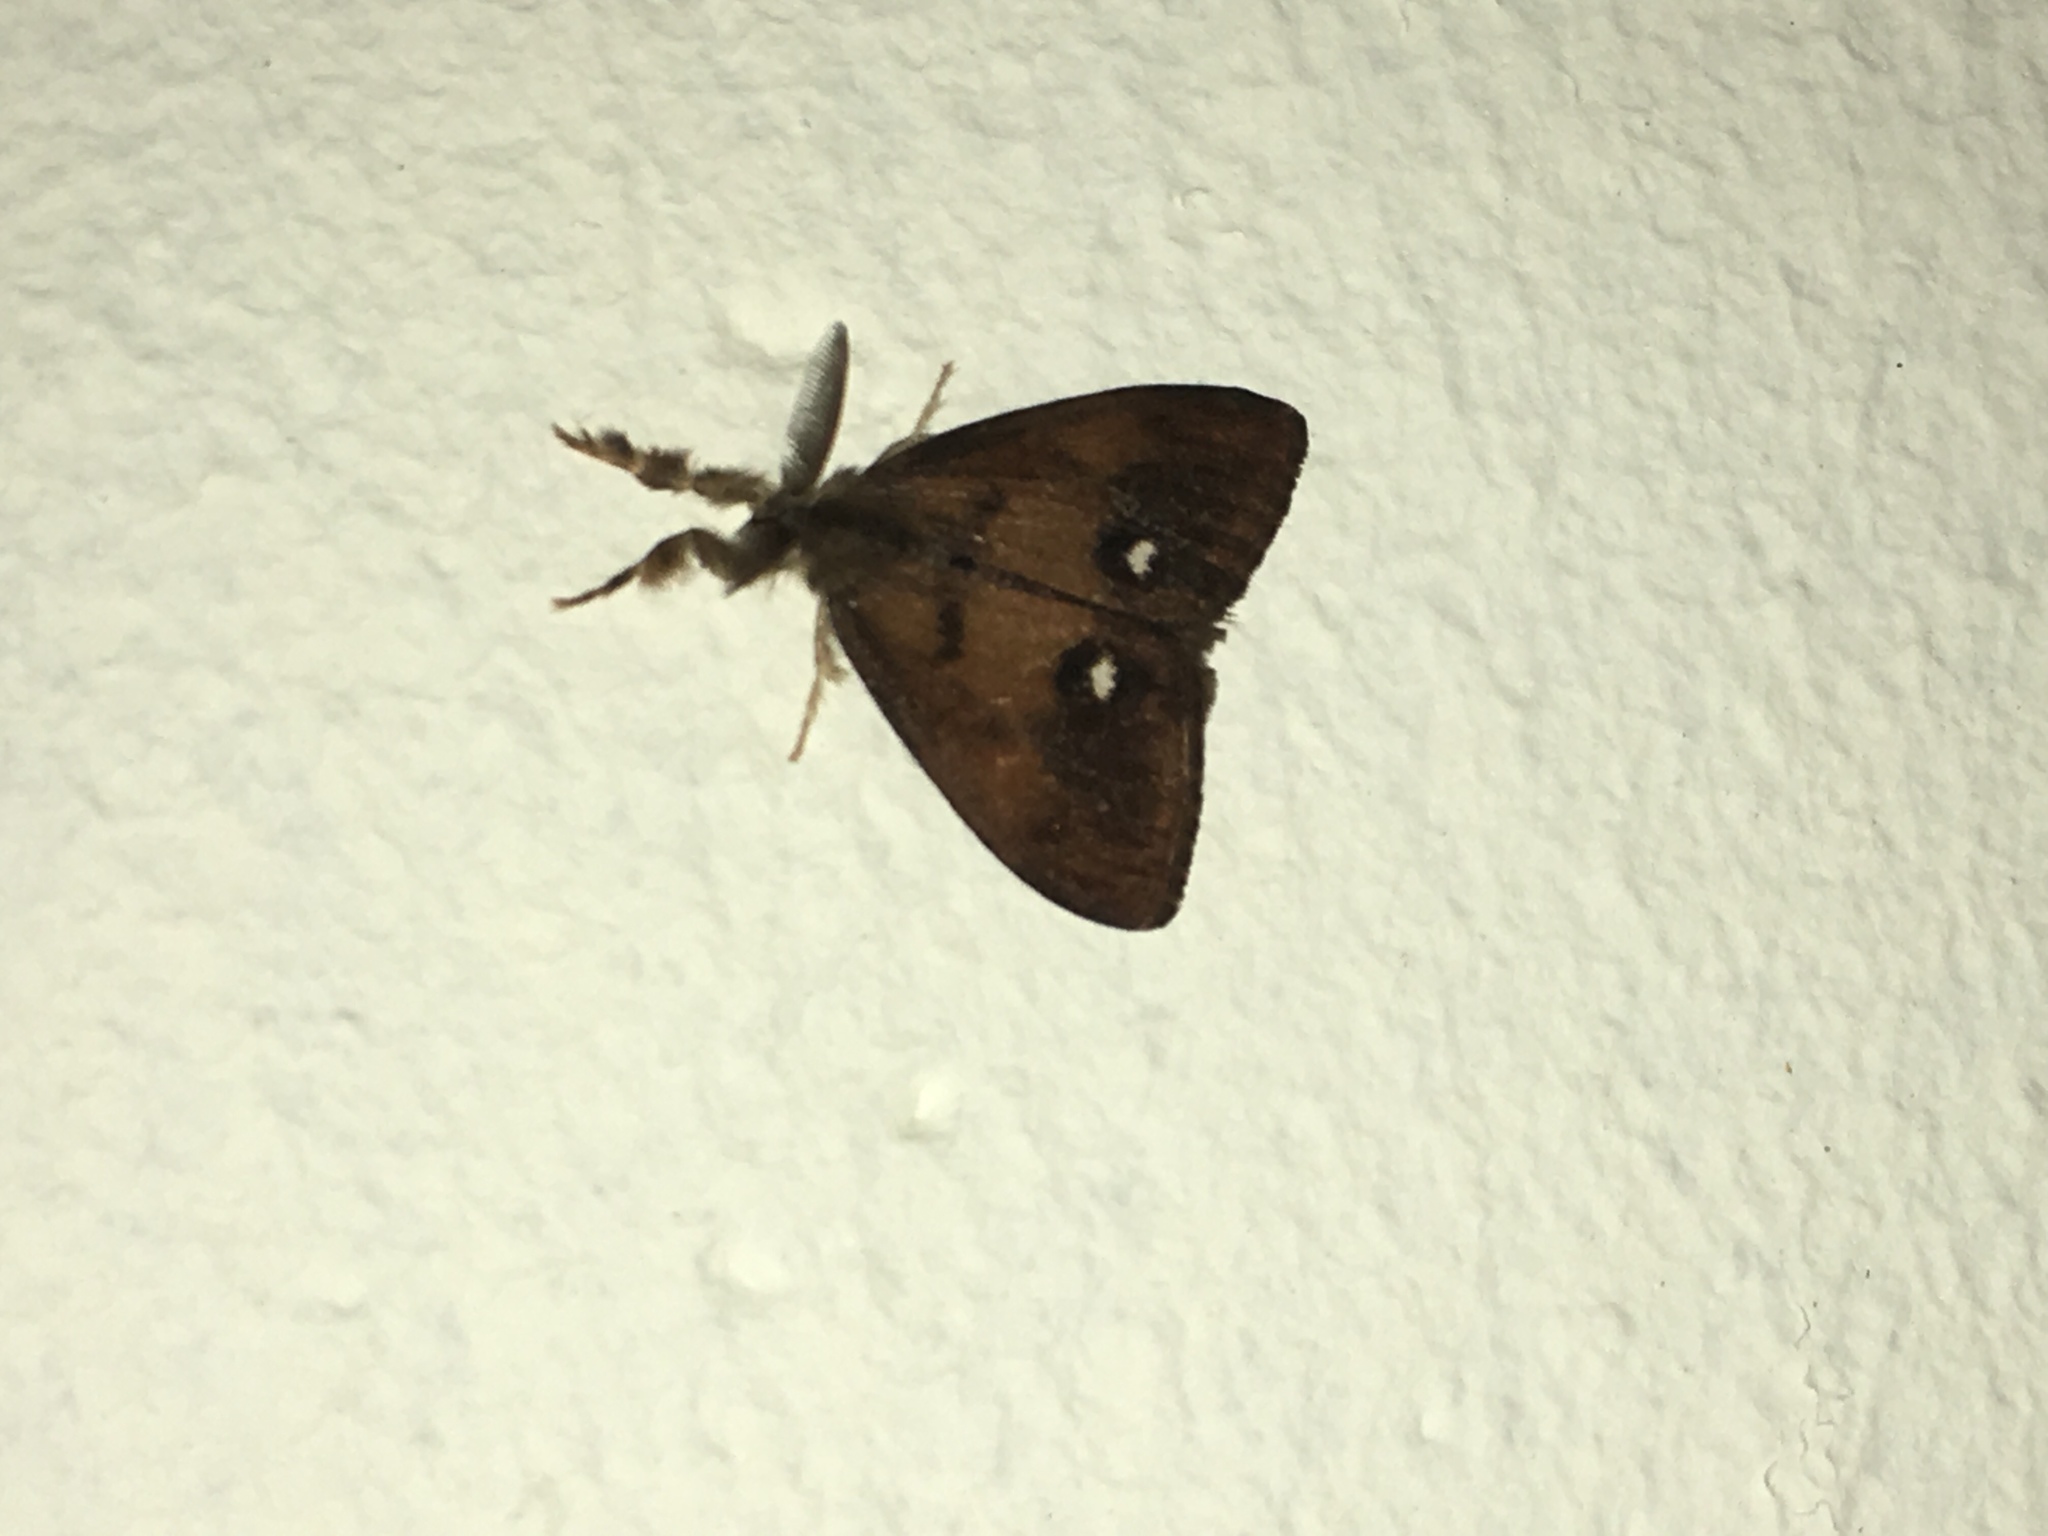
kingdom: Animalia
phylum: Arthropoda
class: Insecta
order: Lepidoptera
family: Erebidae
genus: Orgyia
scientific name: Orgyia antiqua
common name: Vapourer
